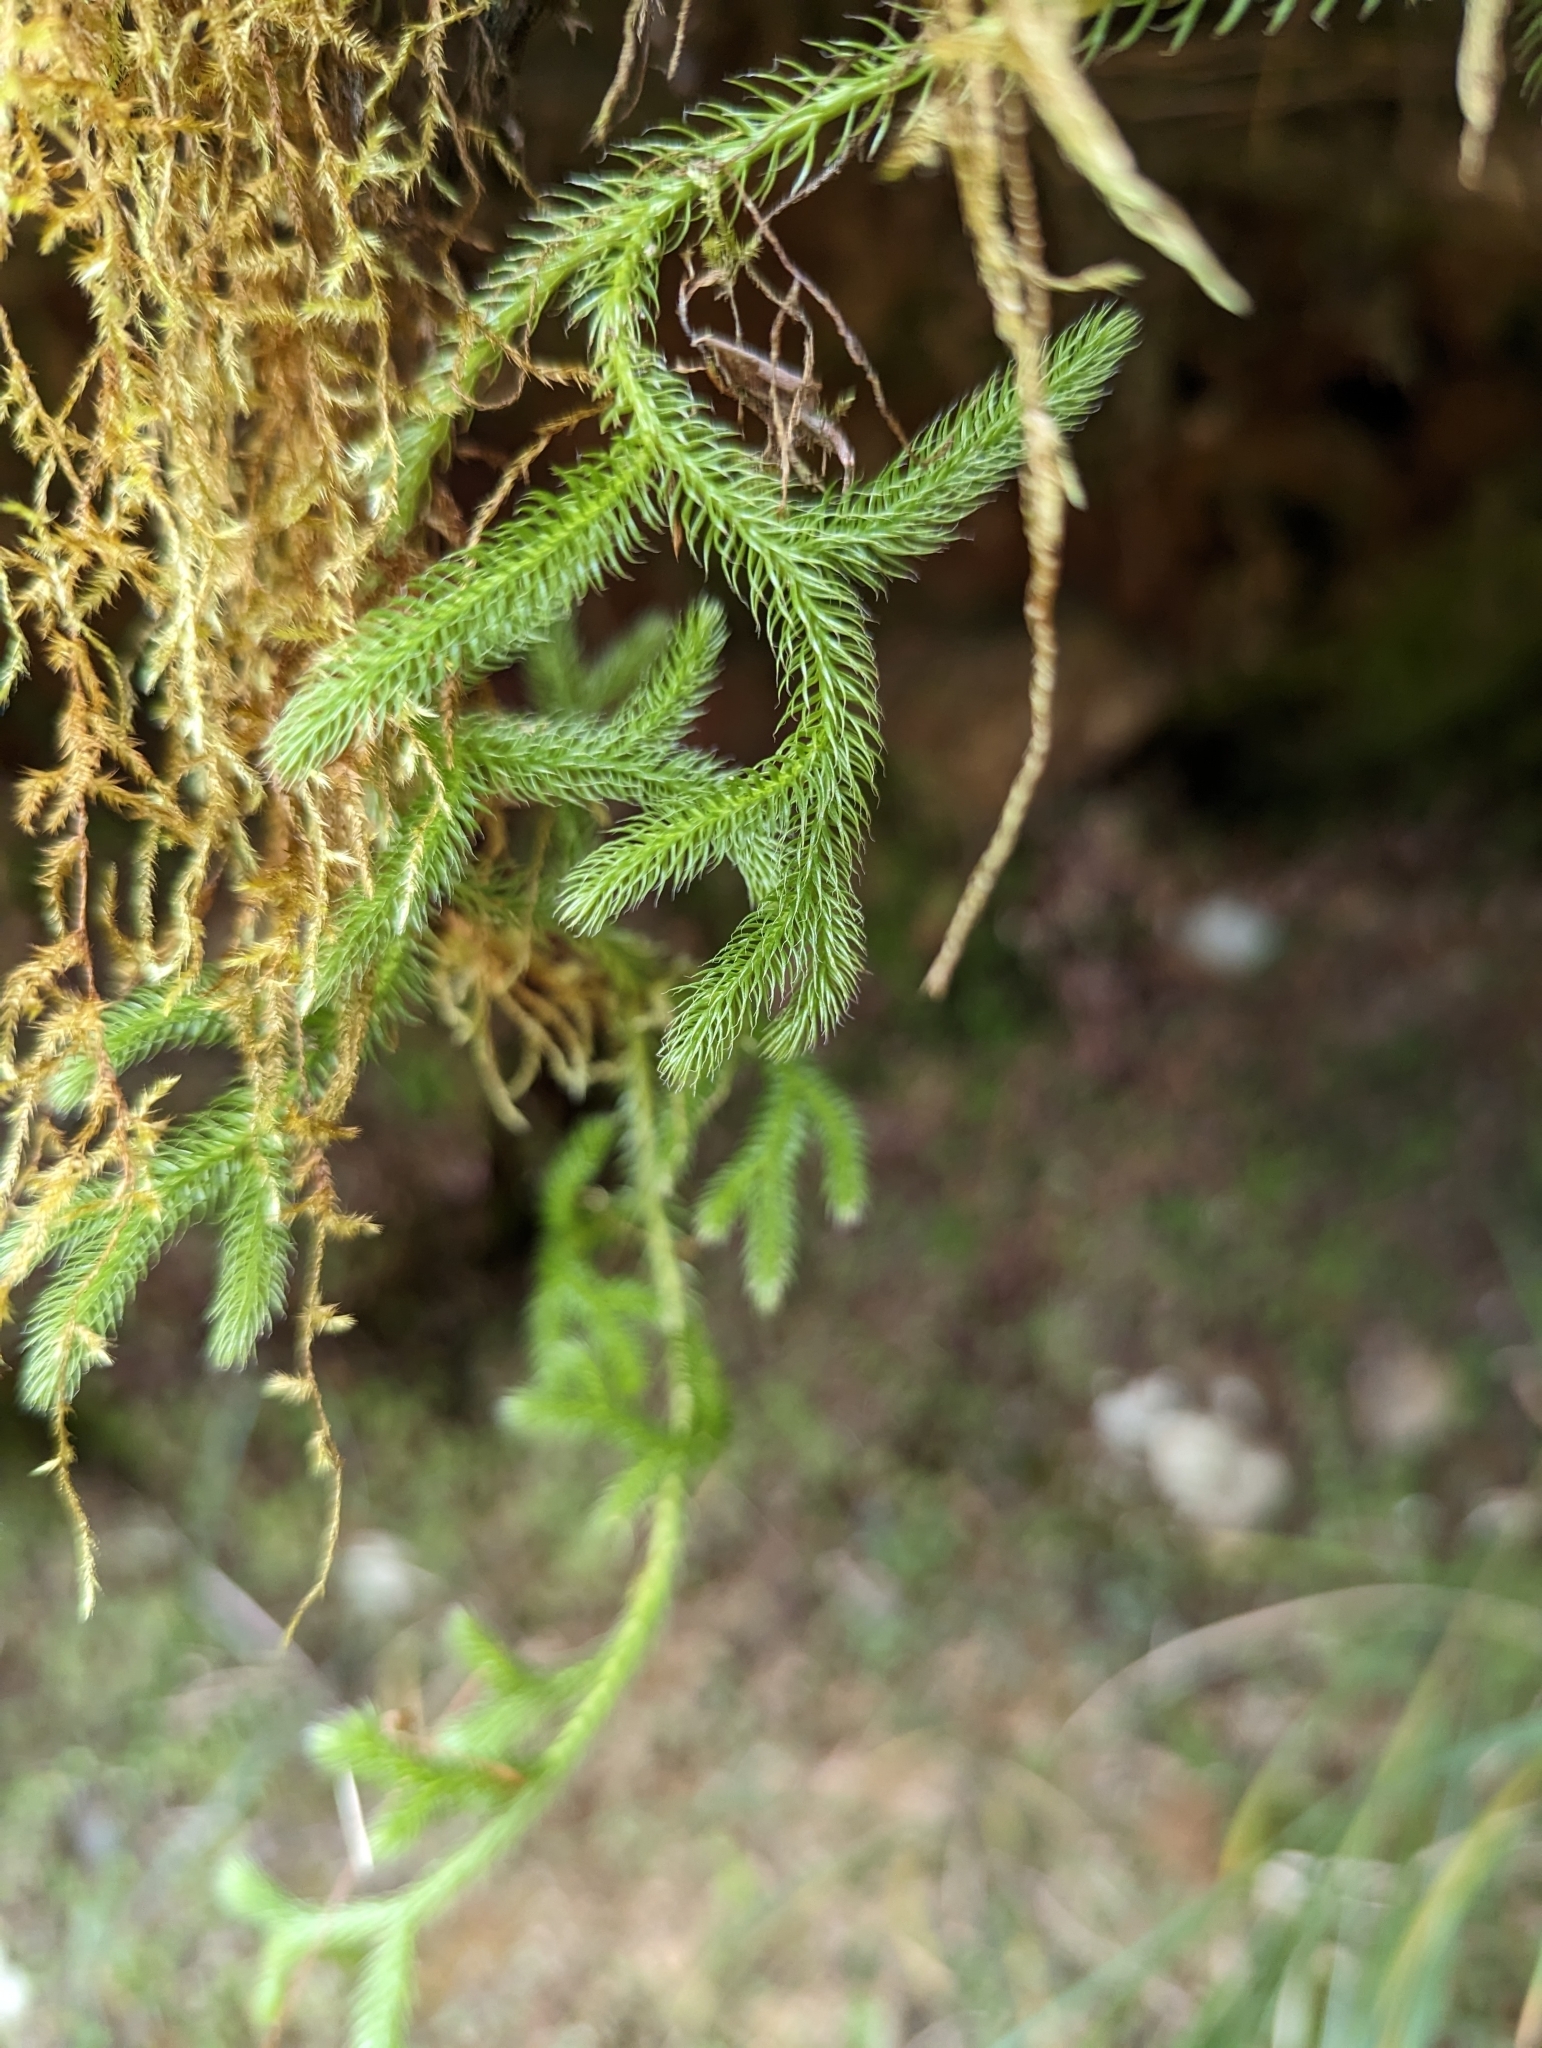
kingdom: Plantae
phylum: Tracheophyta
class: Lycopodiopsida
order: Lycopodiales
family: Lycopodiaceae
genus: Palhinhaea
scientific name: Palhinhaea cernua
